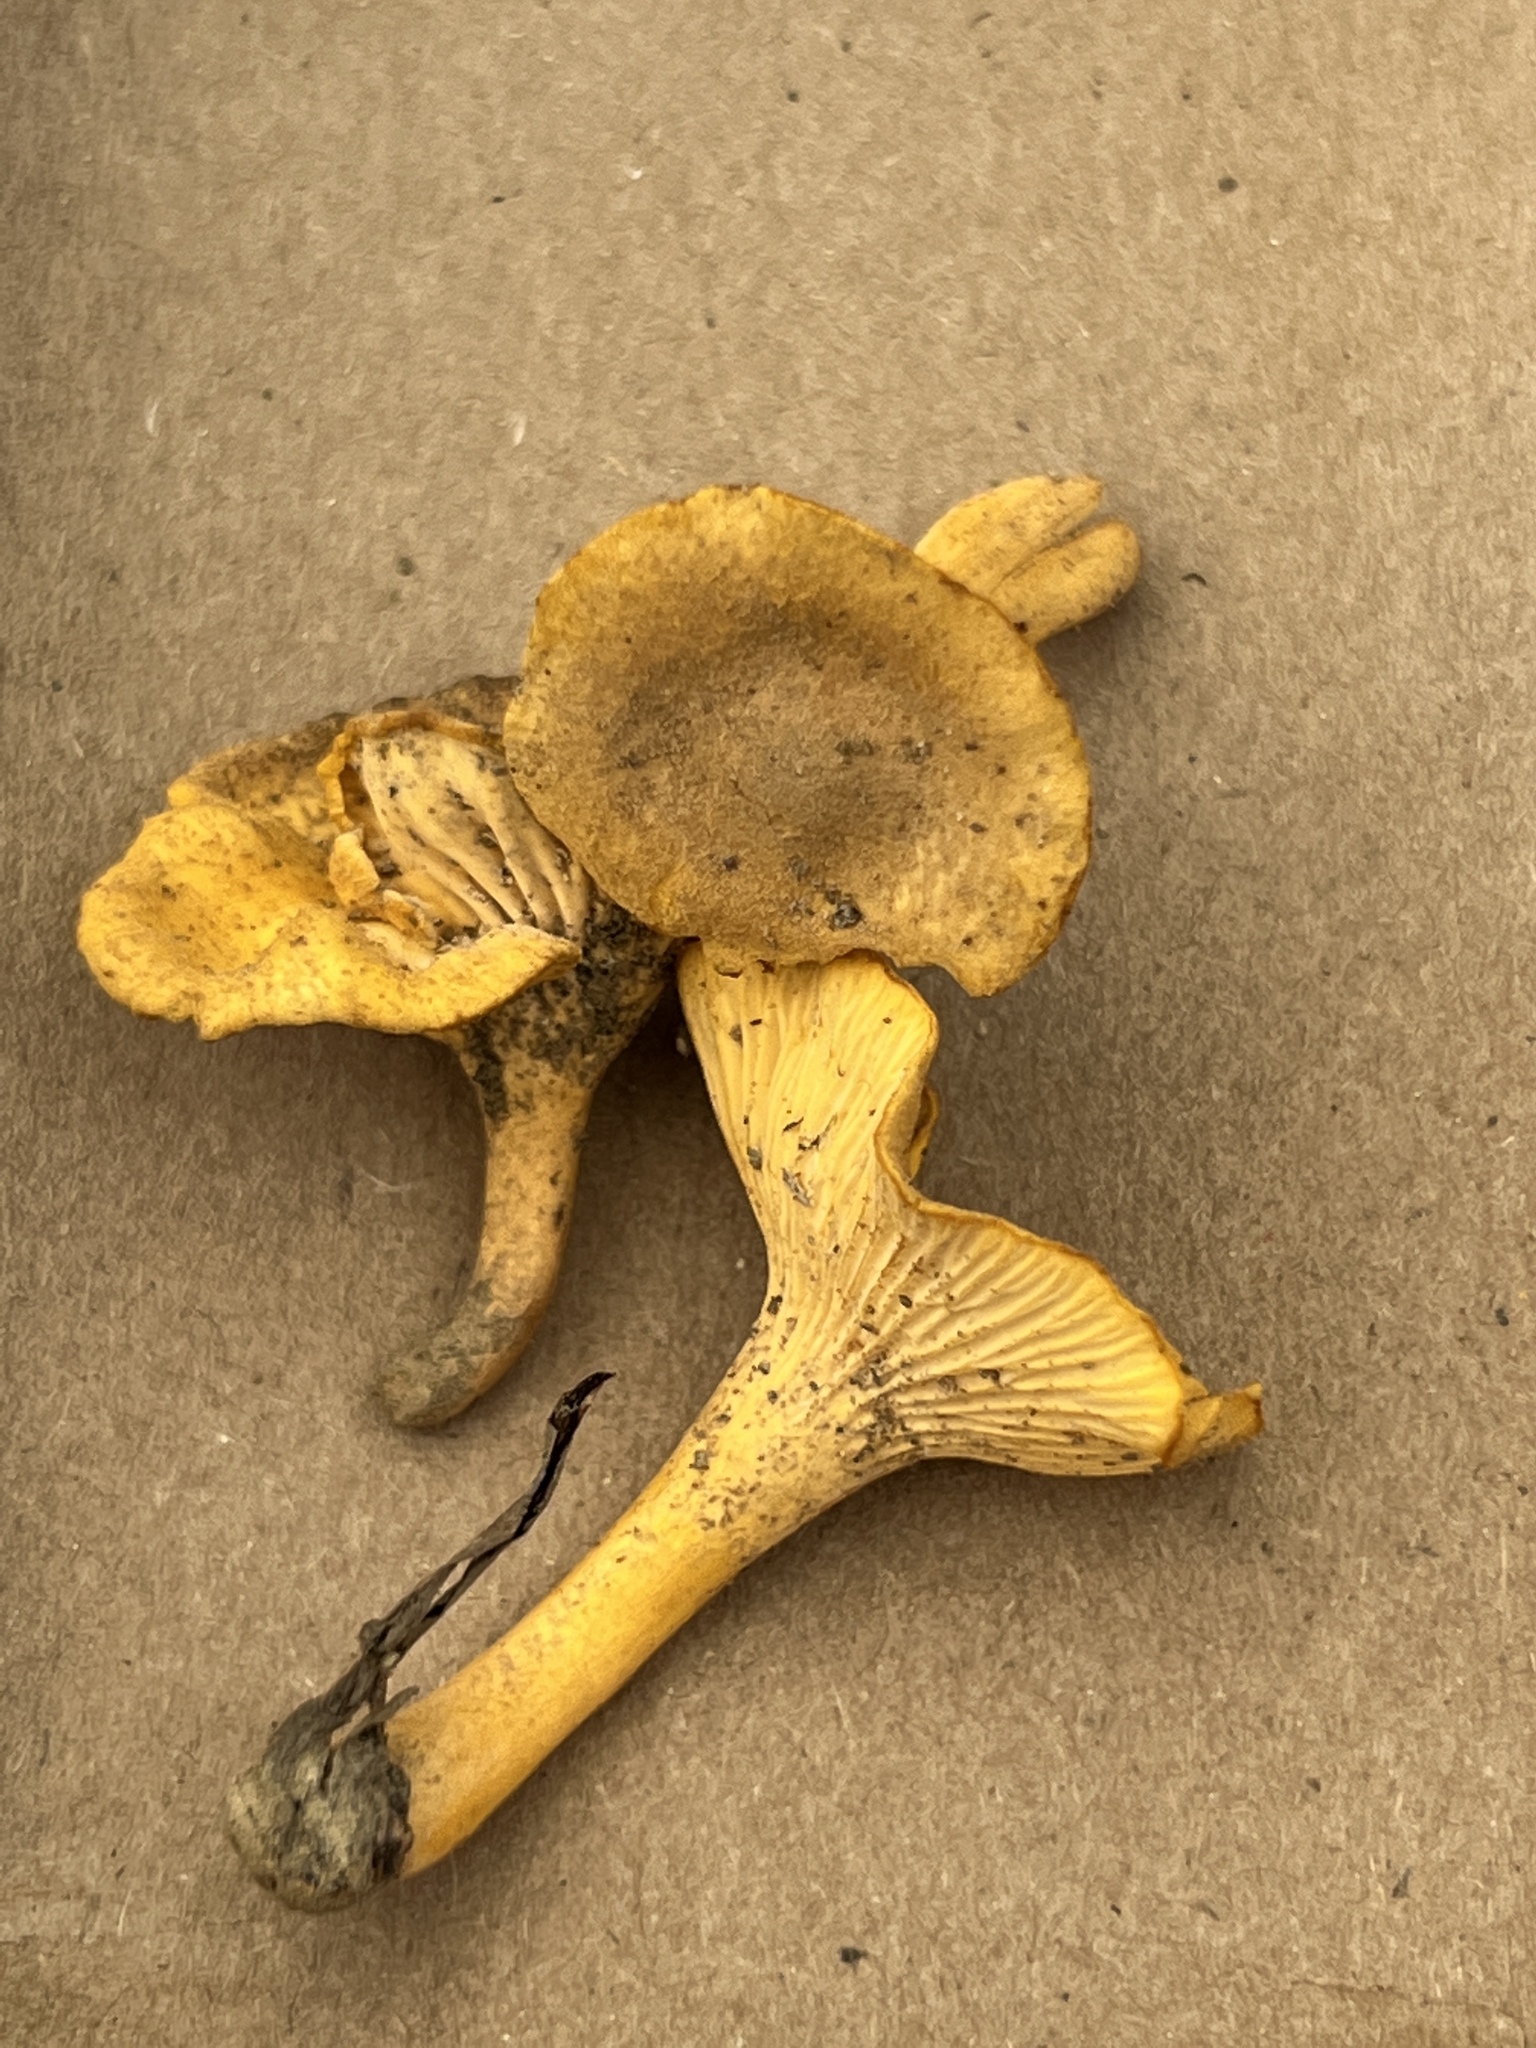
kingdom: Fungi
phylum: Basidiomycota
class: Agaricomycetes
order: Cantharellales
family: Hydnaceae
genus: Cantharellus
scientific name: Cantharellus appalachiensis
